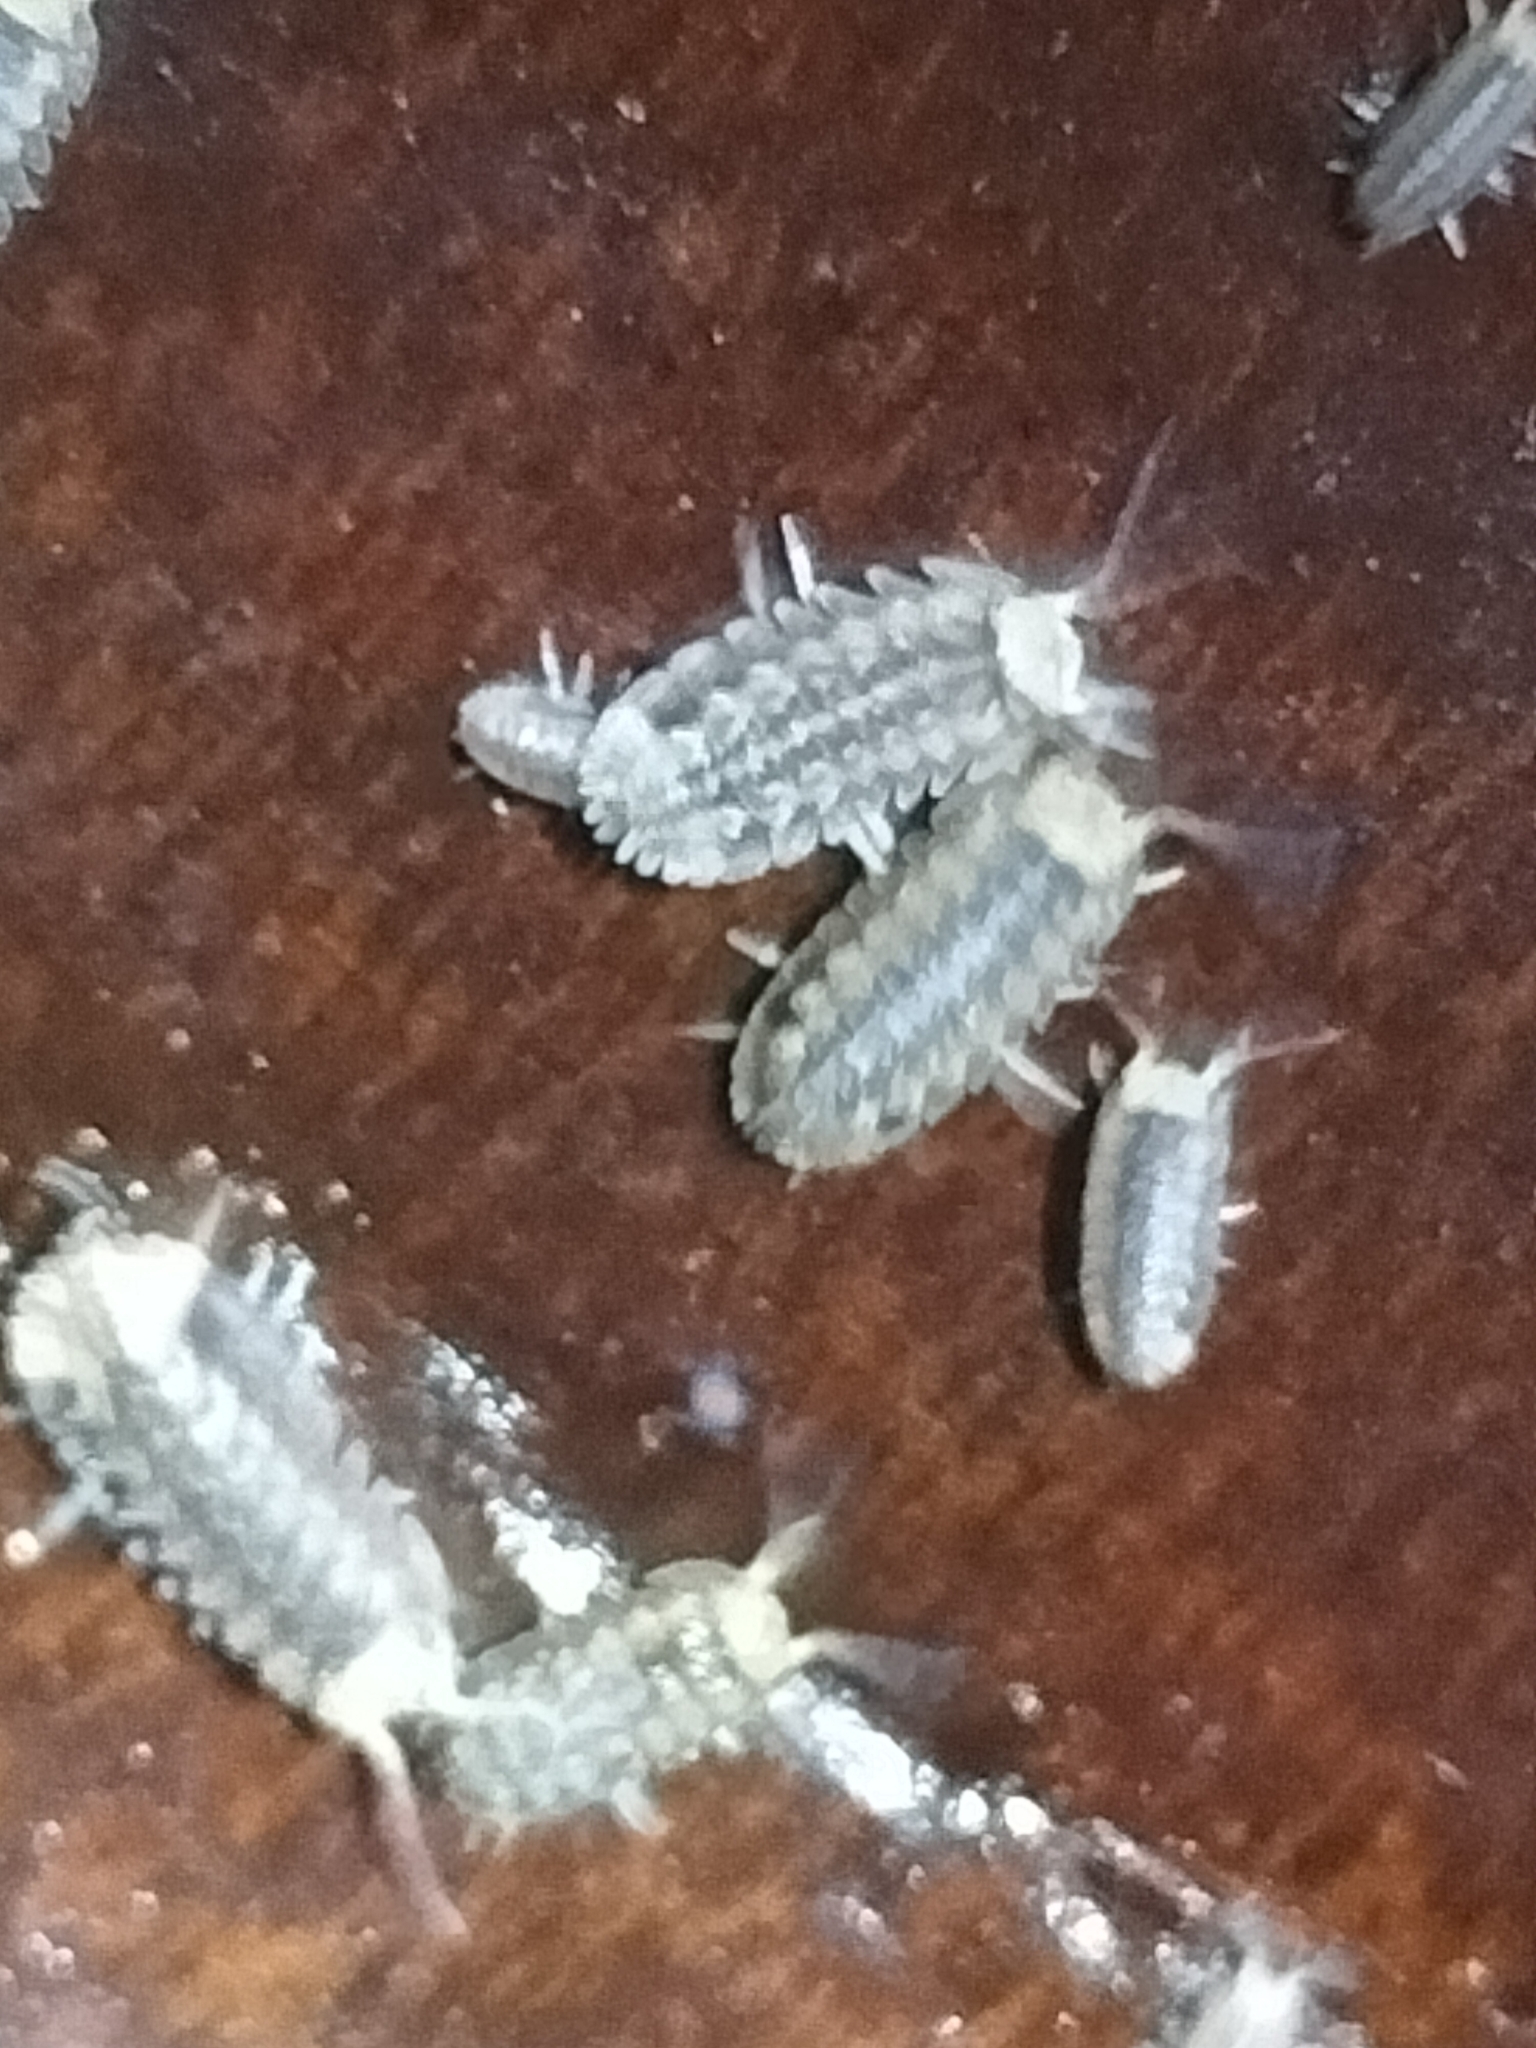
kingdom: Animalia
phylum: Arthropoda
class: Malacostraca
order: Isopoda
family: Armadillidae
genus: Schismadillo
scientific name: Schismadillo spinosus
